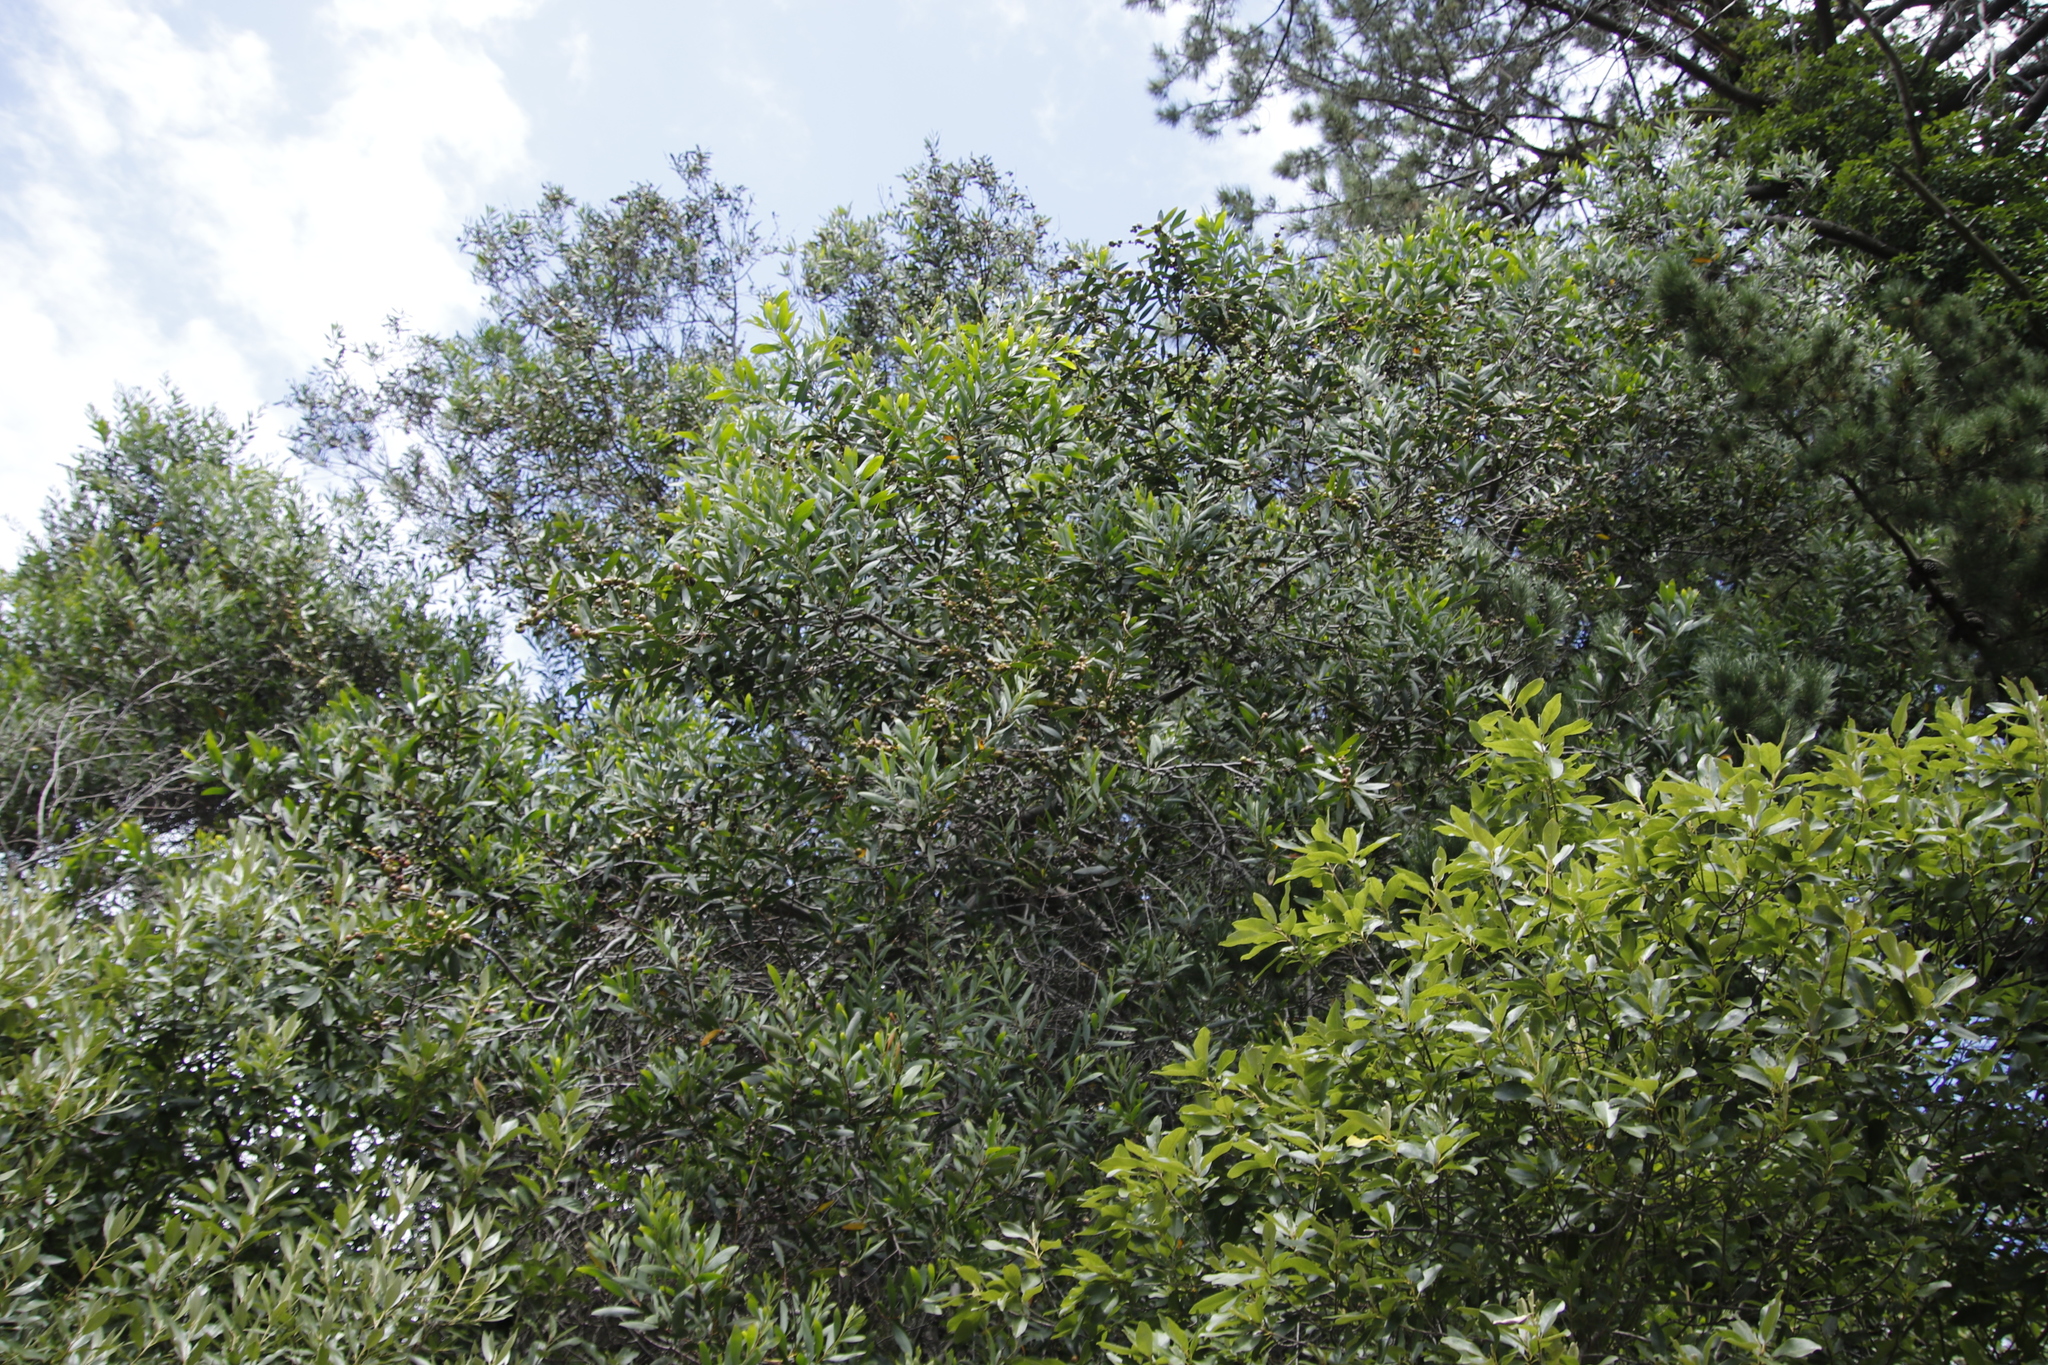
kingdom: Plantae
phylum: Tracheophyta
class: Magnoliopsida
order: Fabales
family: Fabaceae
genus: Acacia
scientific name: Acacia longifolia
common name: Sydney golden wattle
